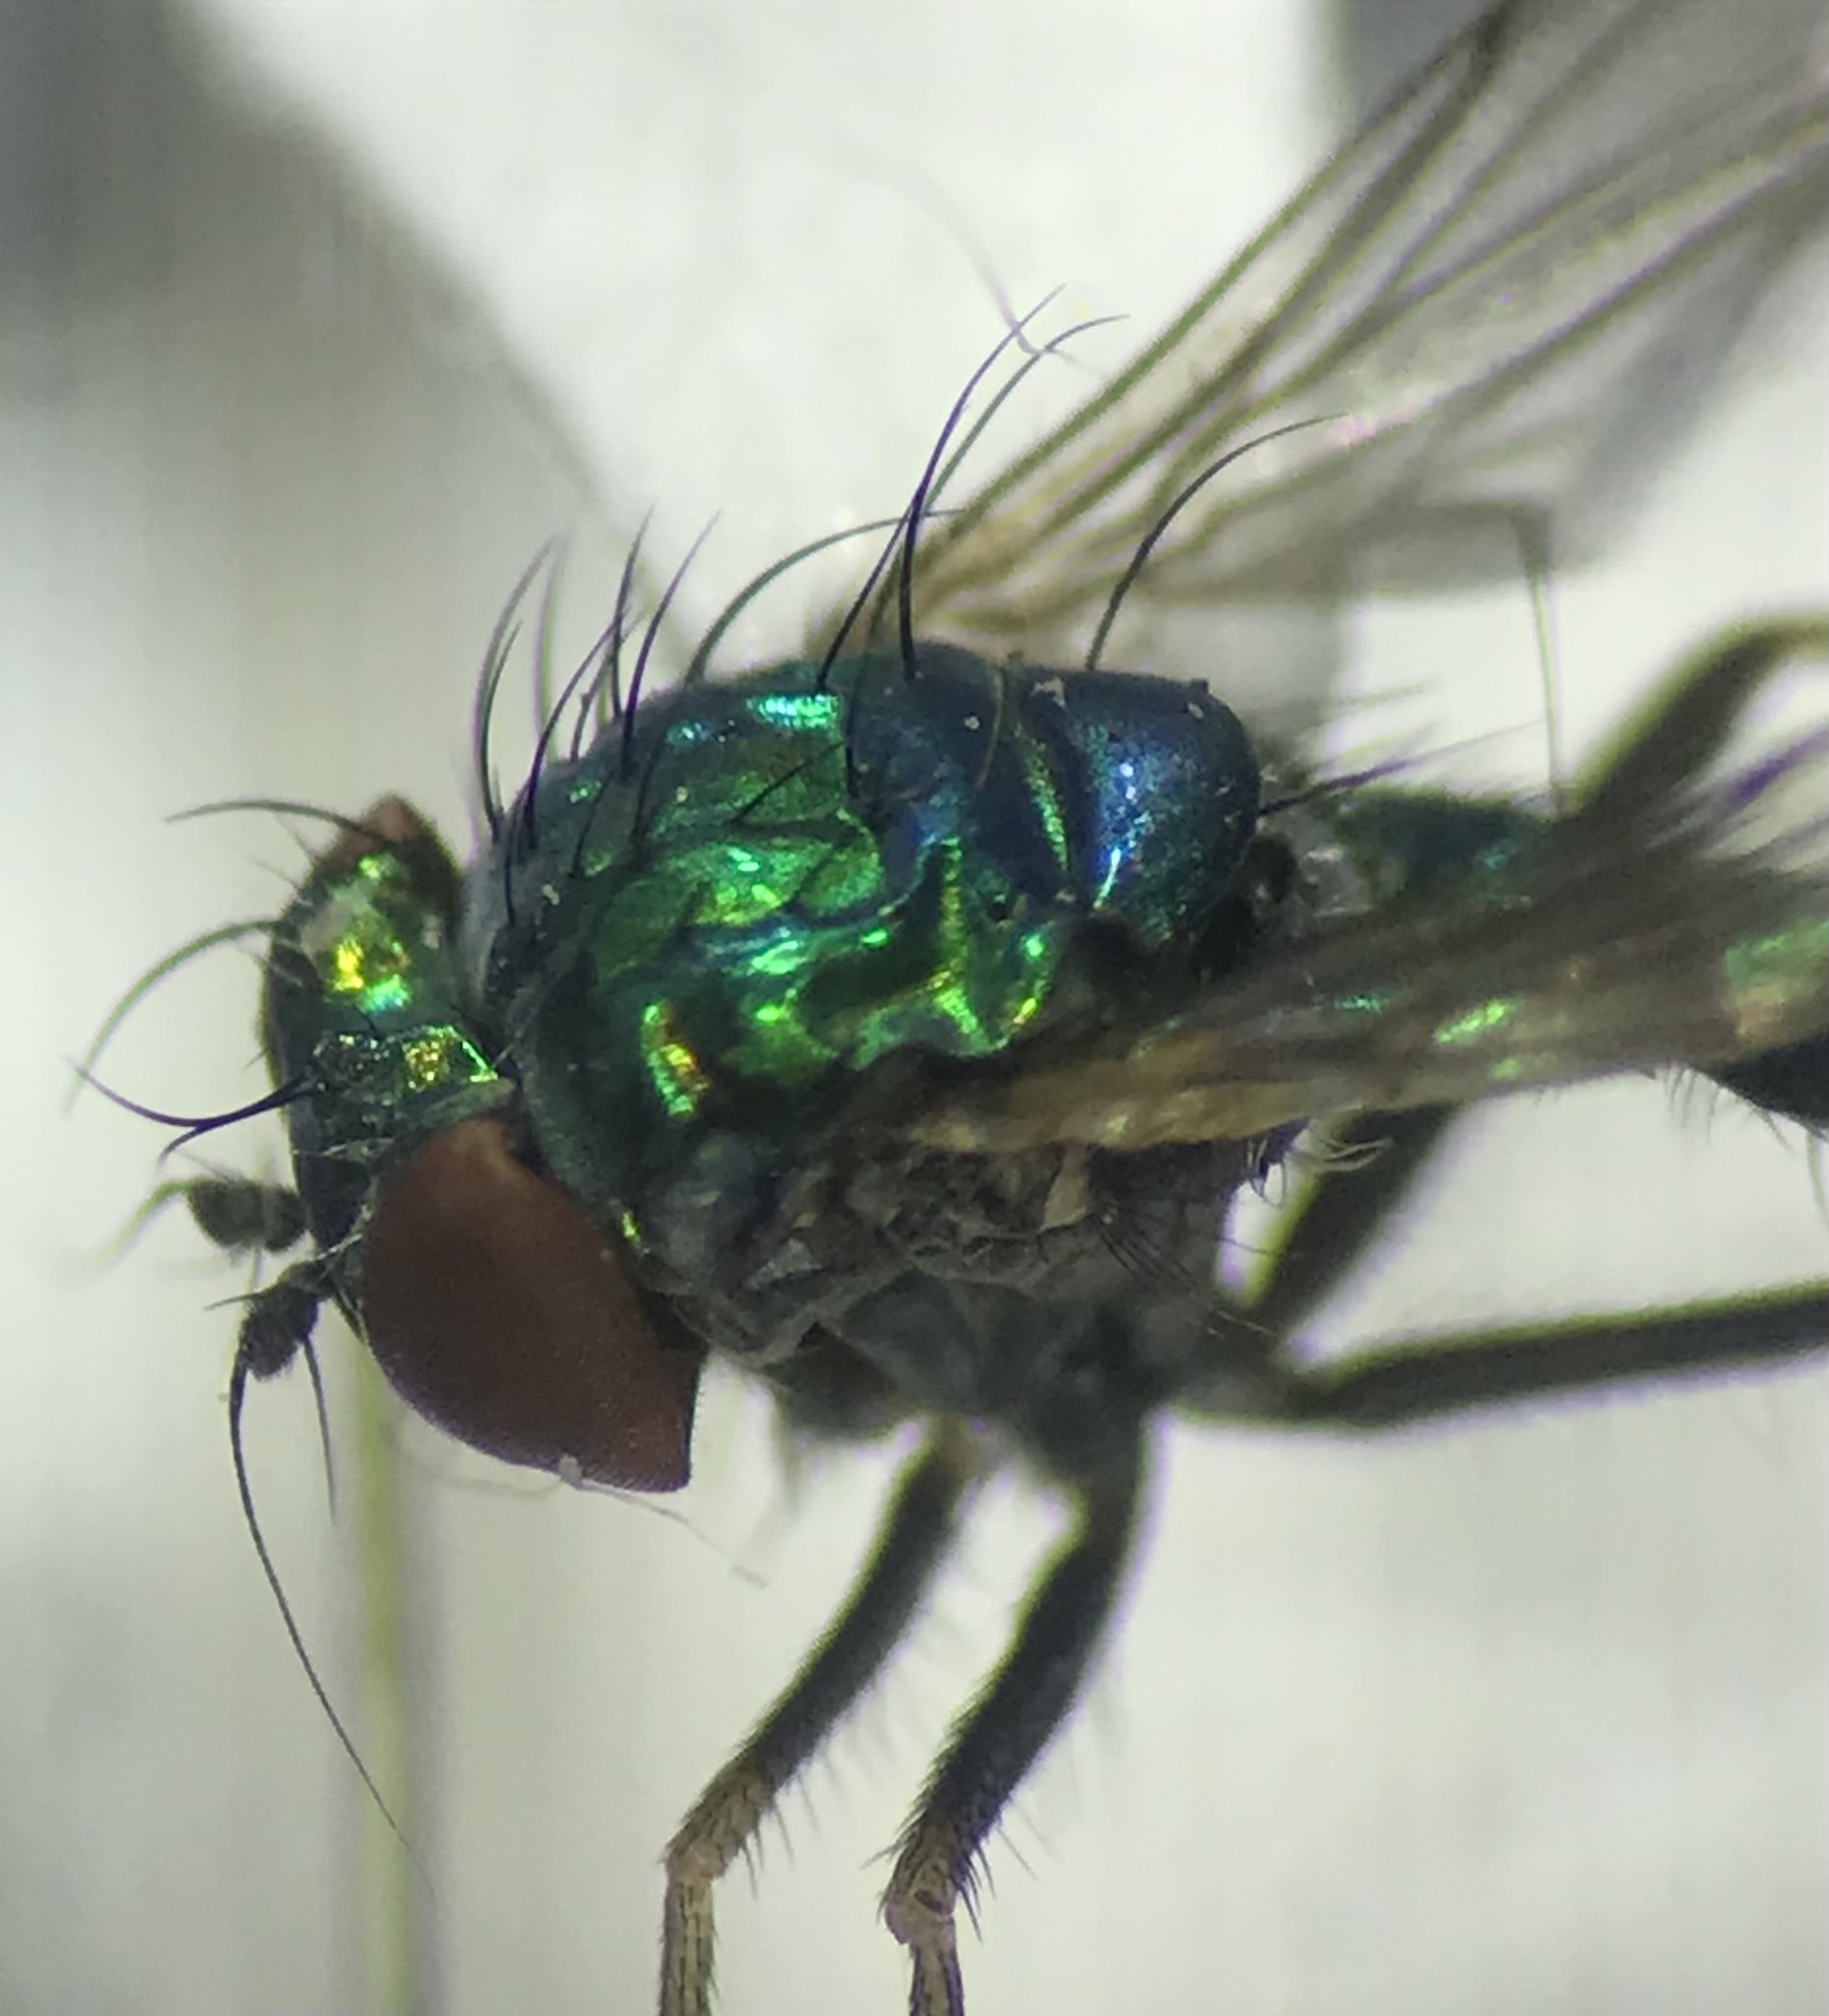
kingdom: Animalia
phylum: Arthropoda
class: Insecta
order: Diptera
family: Dolichopodidae
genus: Condylostylus
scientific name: Condylostylus caudatus
